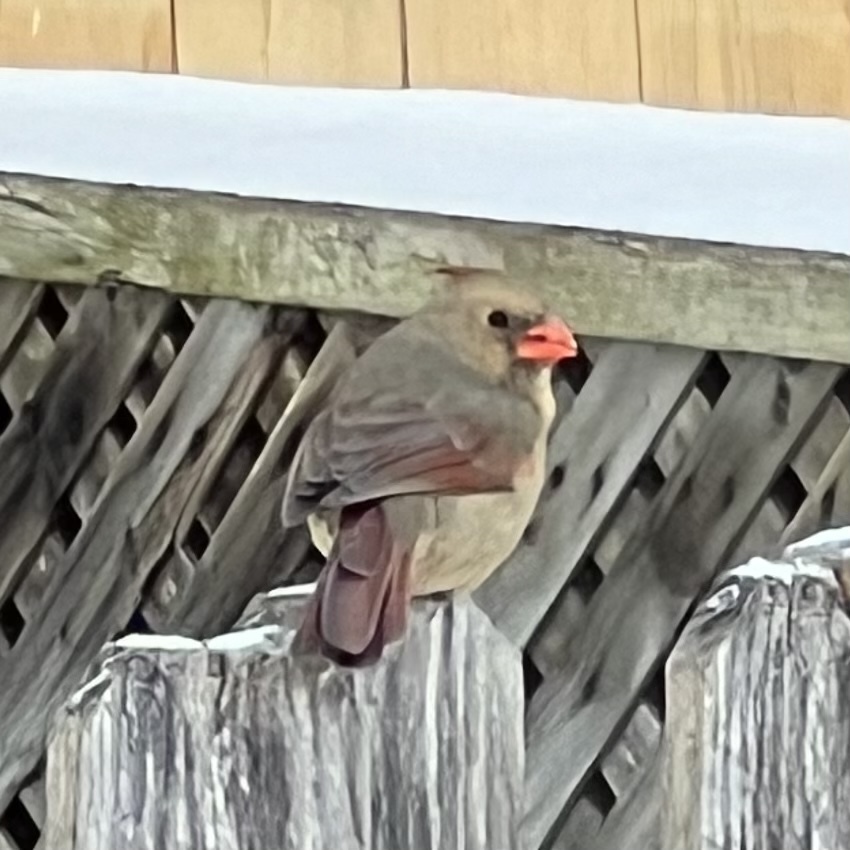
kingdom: Animalia
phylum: Chordata
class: Aves
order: Passeriformes
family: Cardinalidae
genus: Cardinalis
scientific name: Cardinalis cardinalis
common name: Northern cardinal
